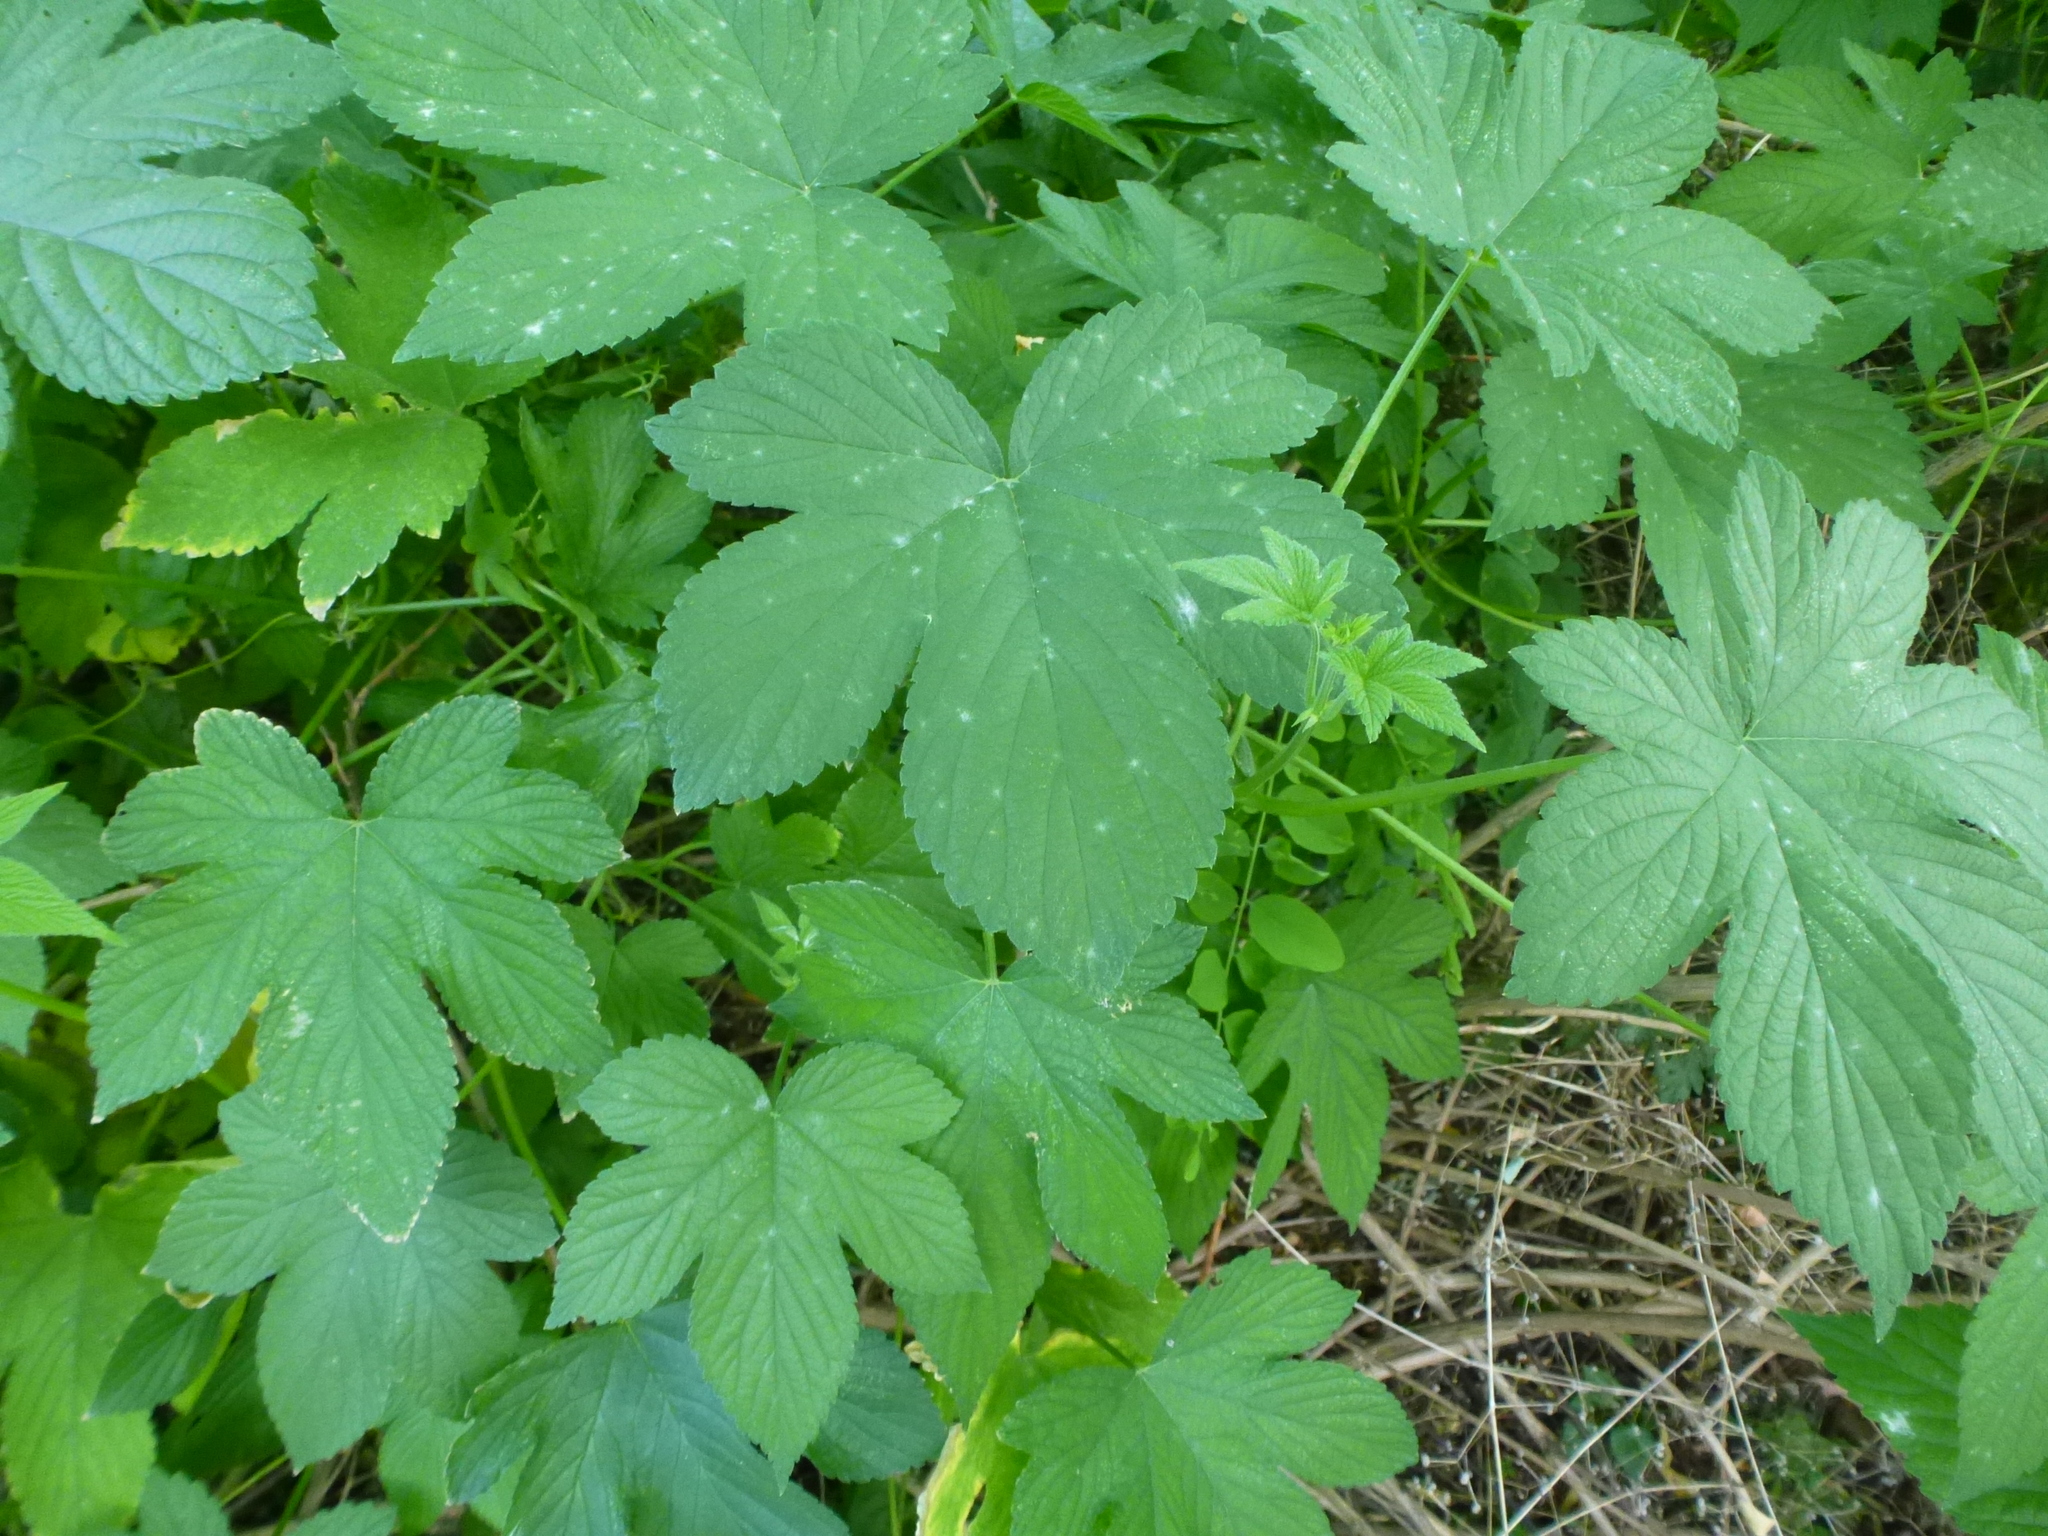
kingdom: Plantae
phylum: Tracheophyta
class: Magnoliopsida
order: Rosales
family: Cannabaceae
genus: Humulus
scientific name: Humulus scandens
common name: Japanese hop
